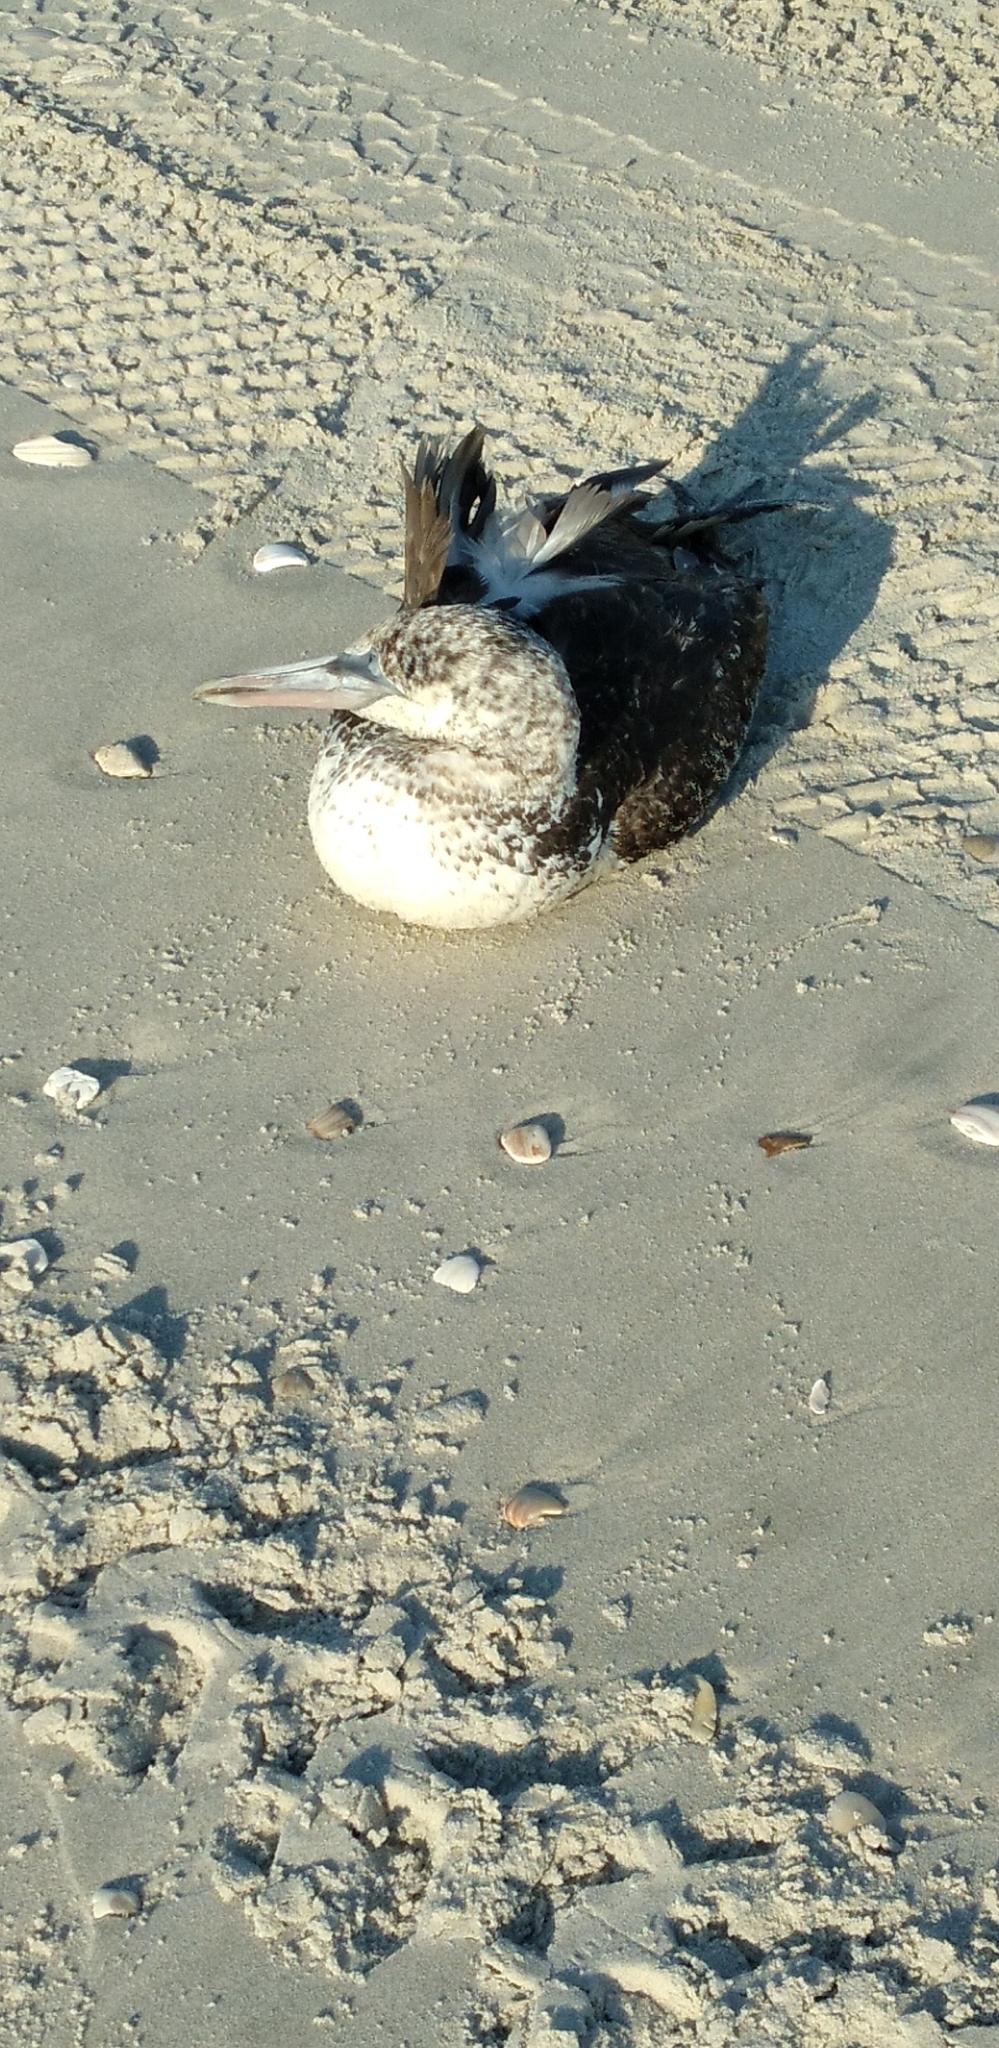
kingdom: Animalia
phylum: Chordata
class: Aves
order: Suliformes
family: Sulidae
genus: Morus
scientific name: Morus bassanus
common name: Northern gannet
